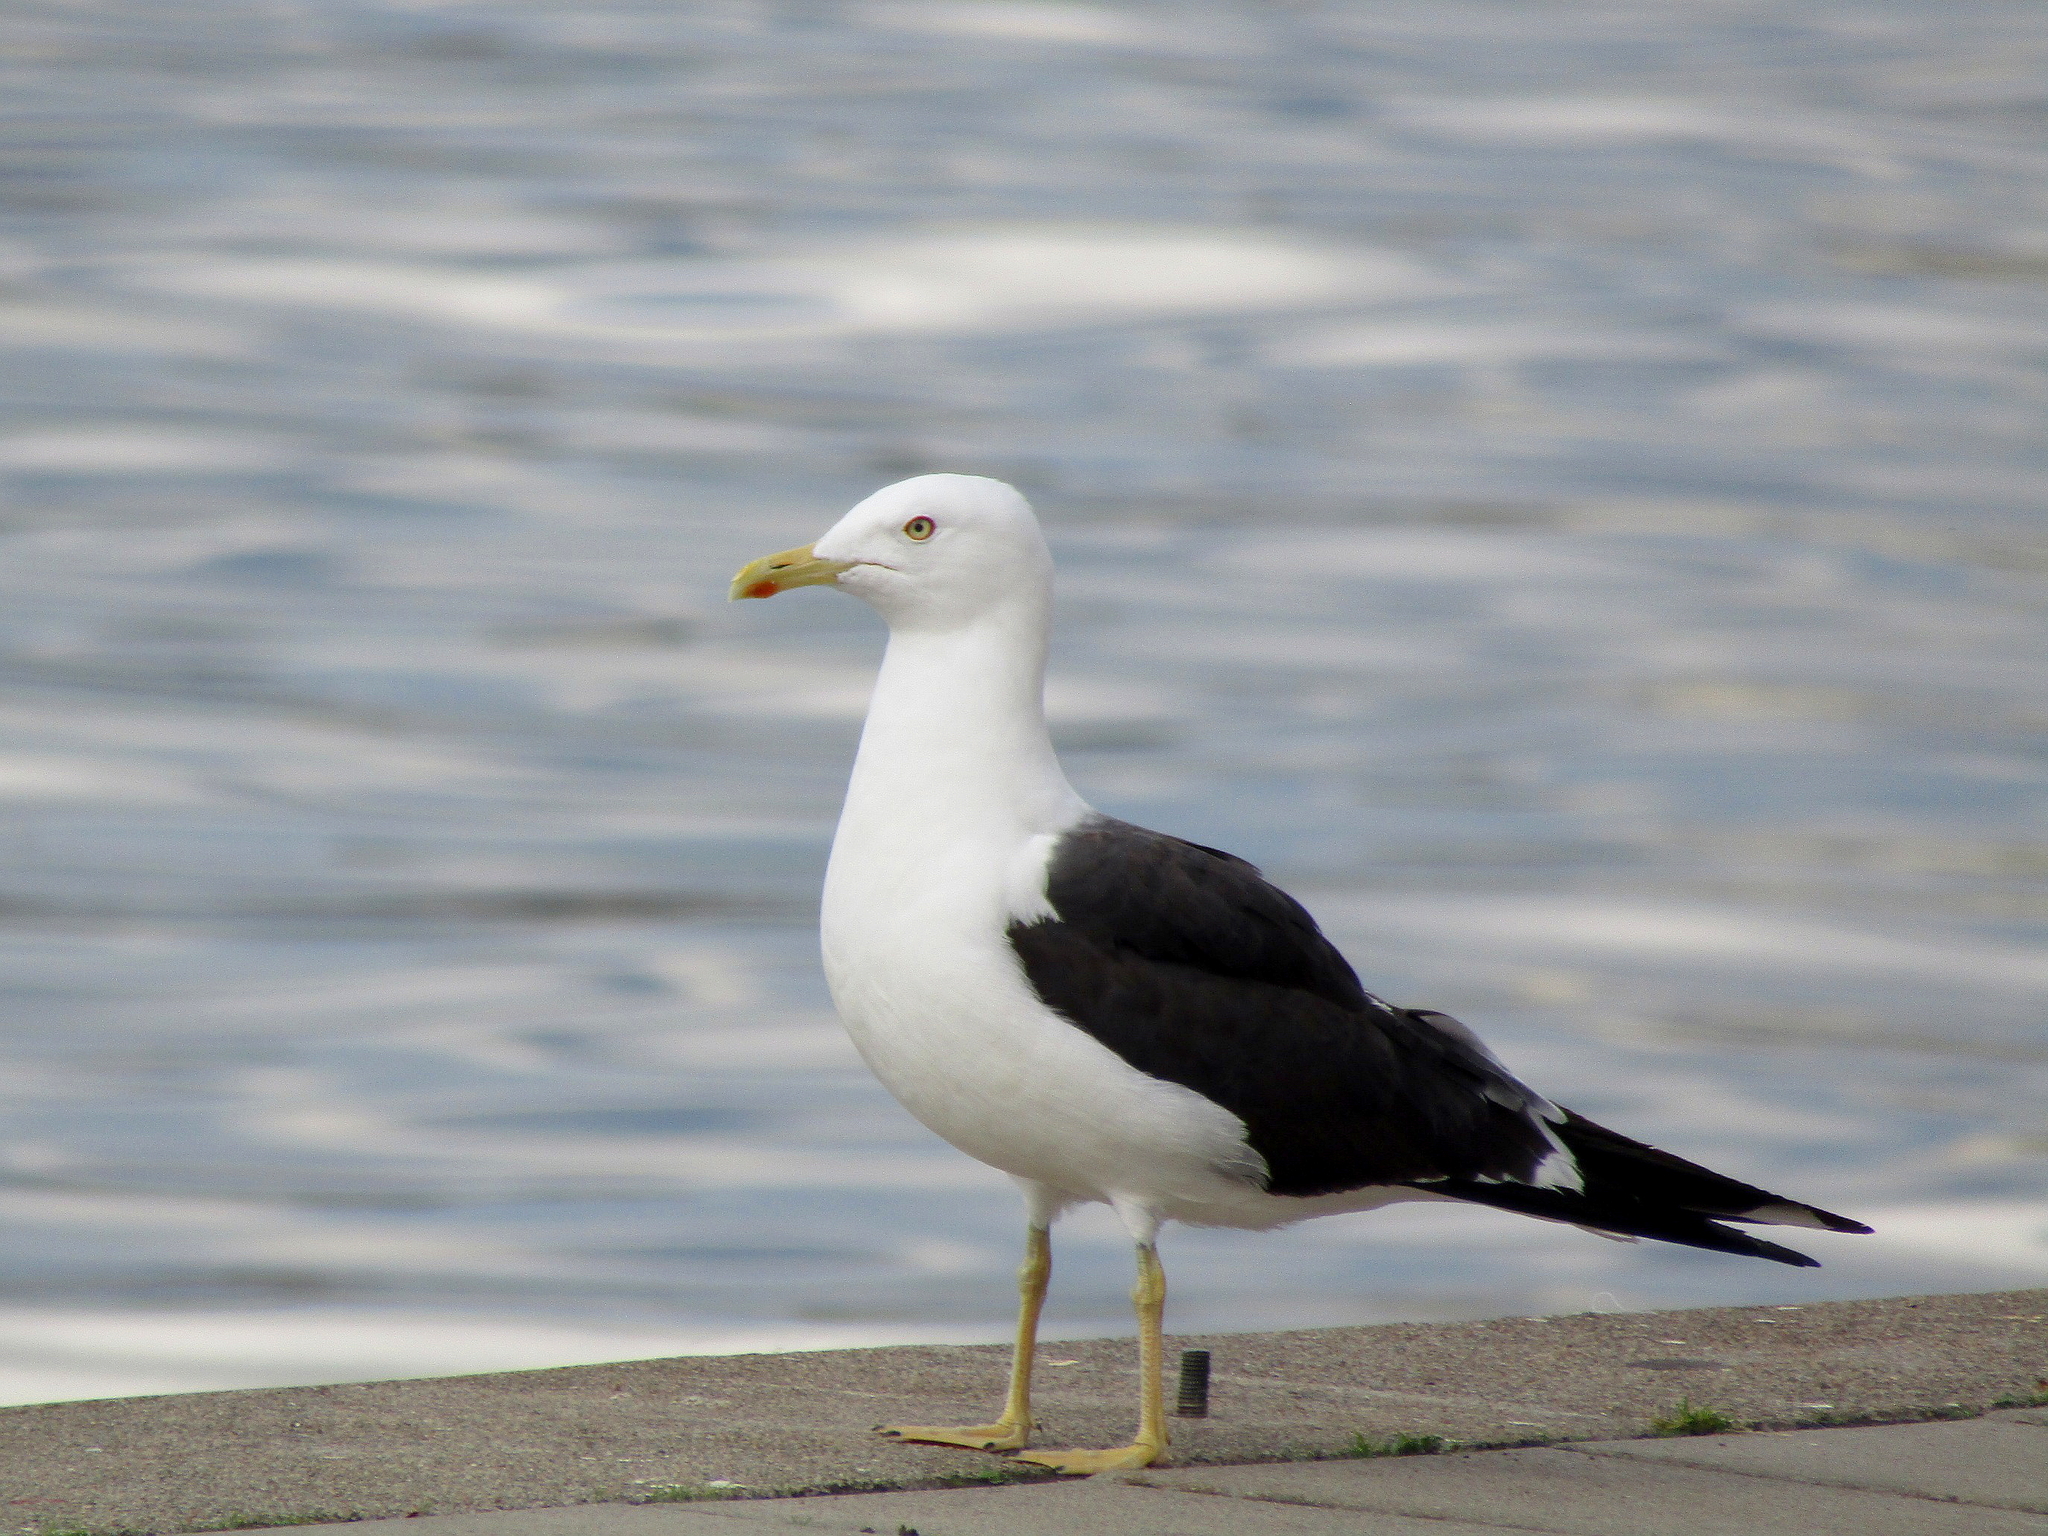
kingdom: Animalia
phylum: Chordata
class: Aves
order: Charadriiformes
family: Laridae
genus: Larus
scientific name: Larus fuscus
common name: Lesser black-backed gull
